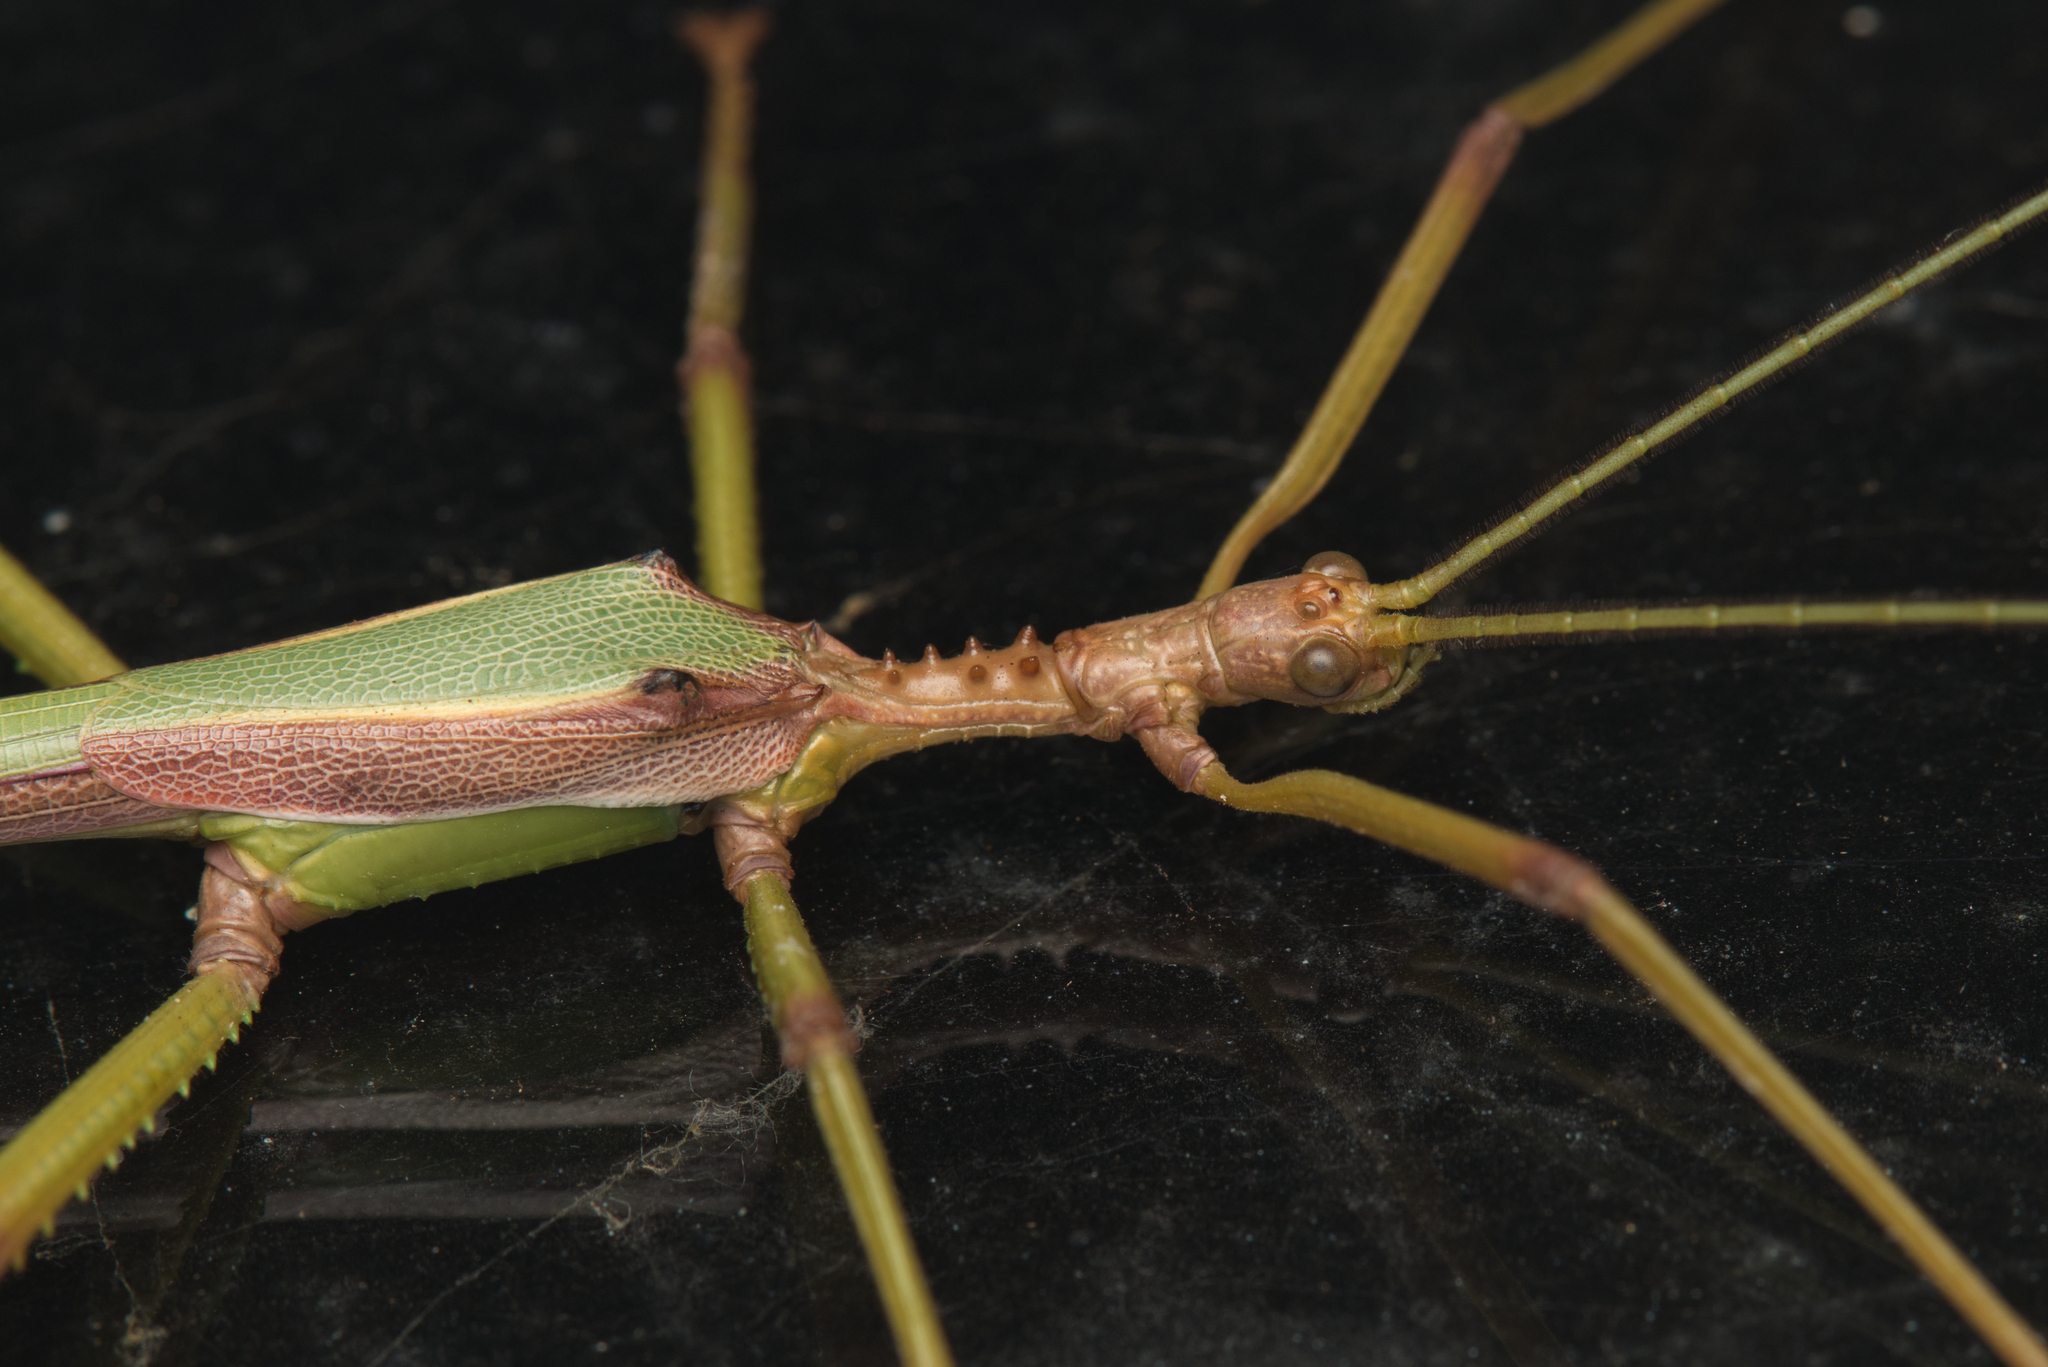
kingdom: Animalia
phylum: Arthropoda
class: Insecta
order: Phasmida
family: Phasmatidae
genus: Podacanthus
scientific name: Podacanthus viridiroseus
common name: Red-winged stick-insect
